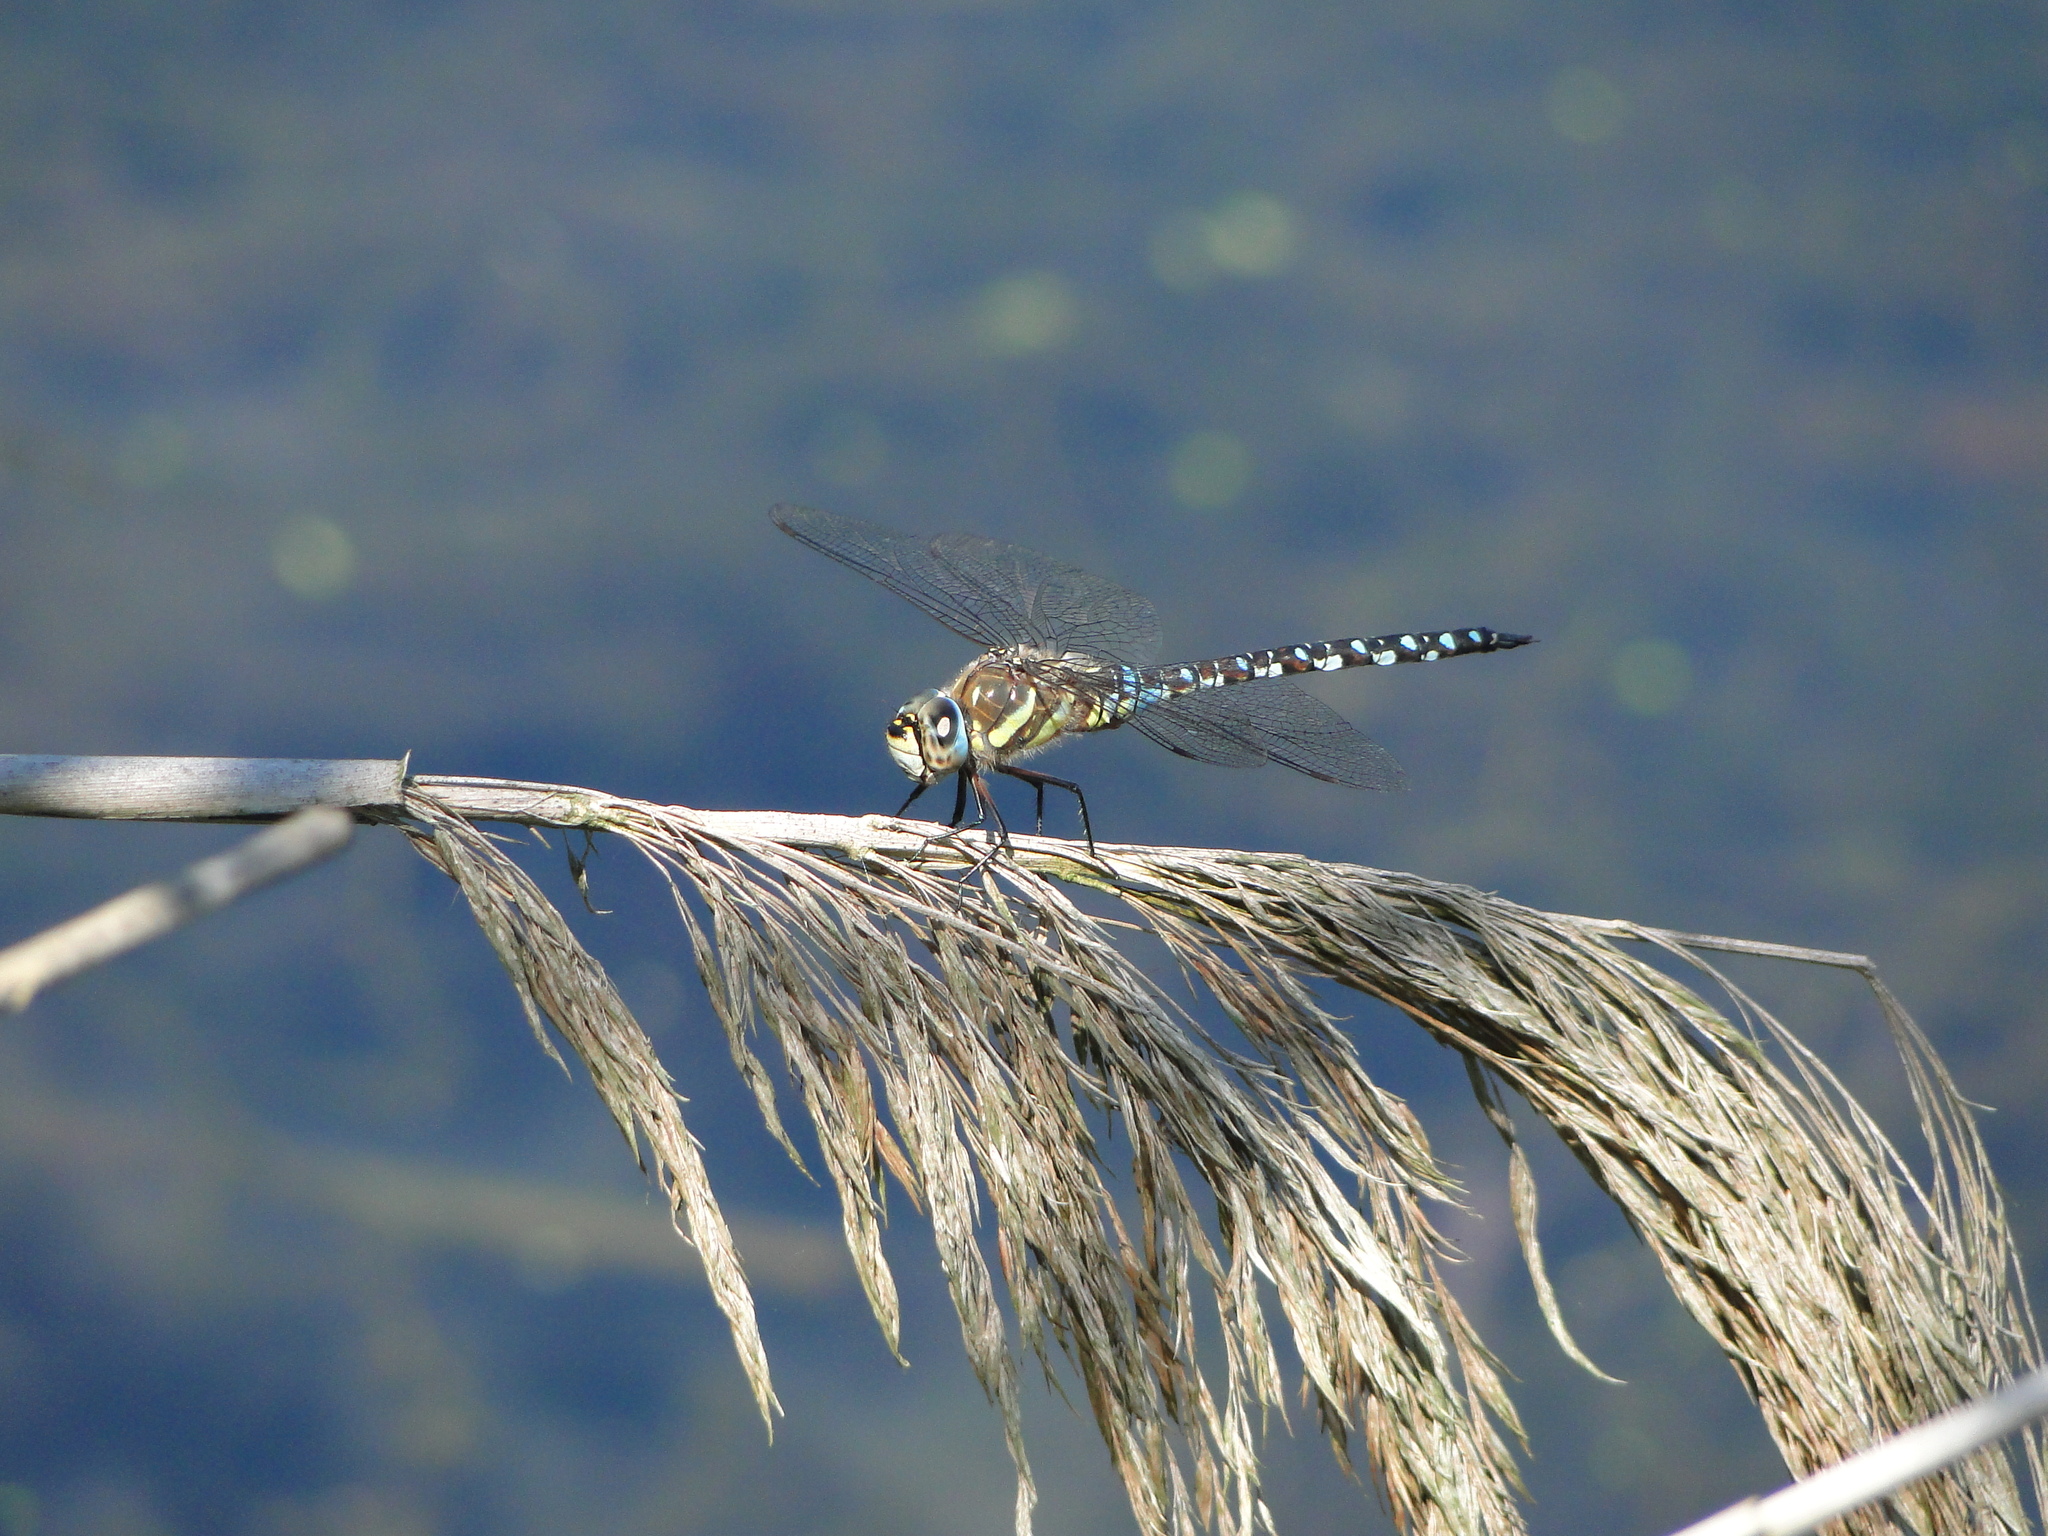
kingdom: Animalia
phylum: Arthropoda
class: Insecta
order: Odonata
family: Aeshnidae
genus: Aeshna
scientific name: Aeshna mixta
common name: Migrant hawker
